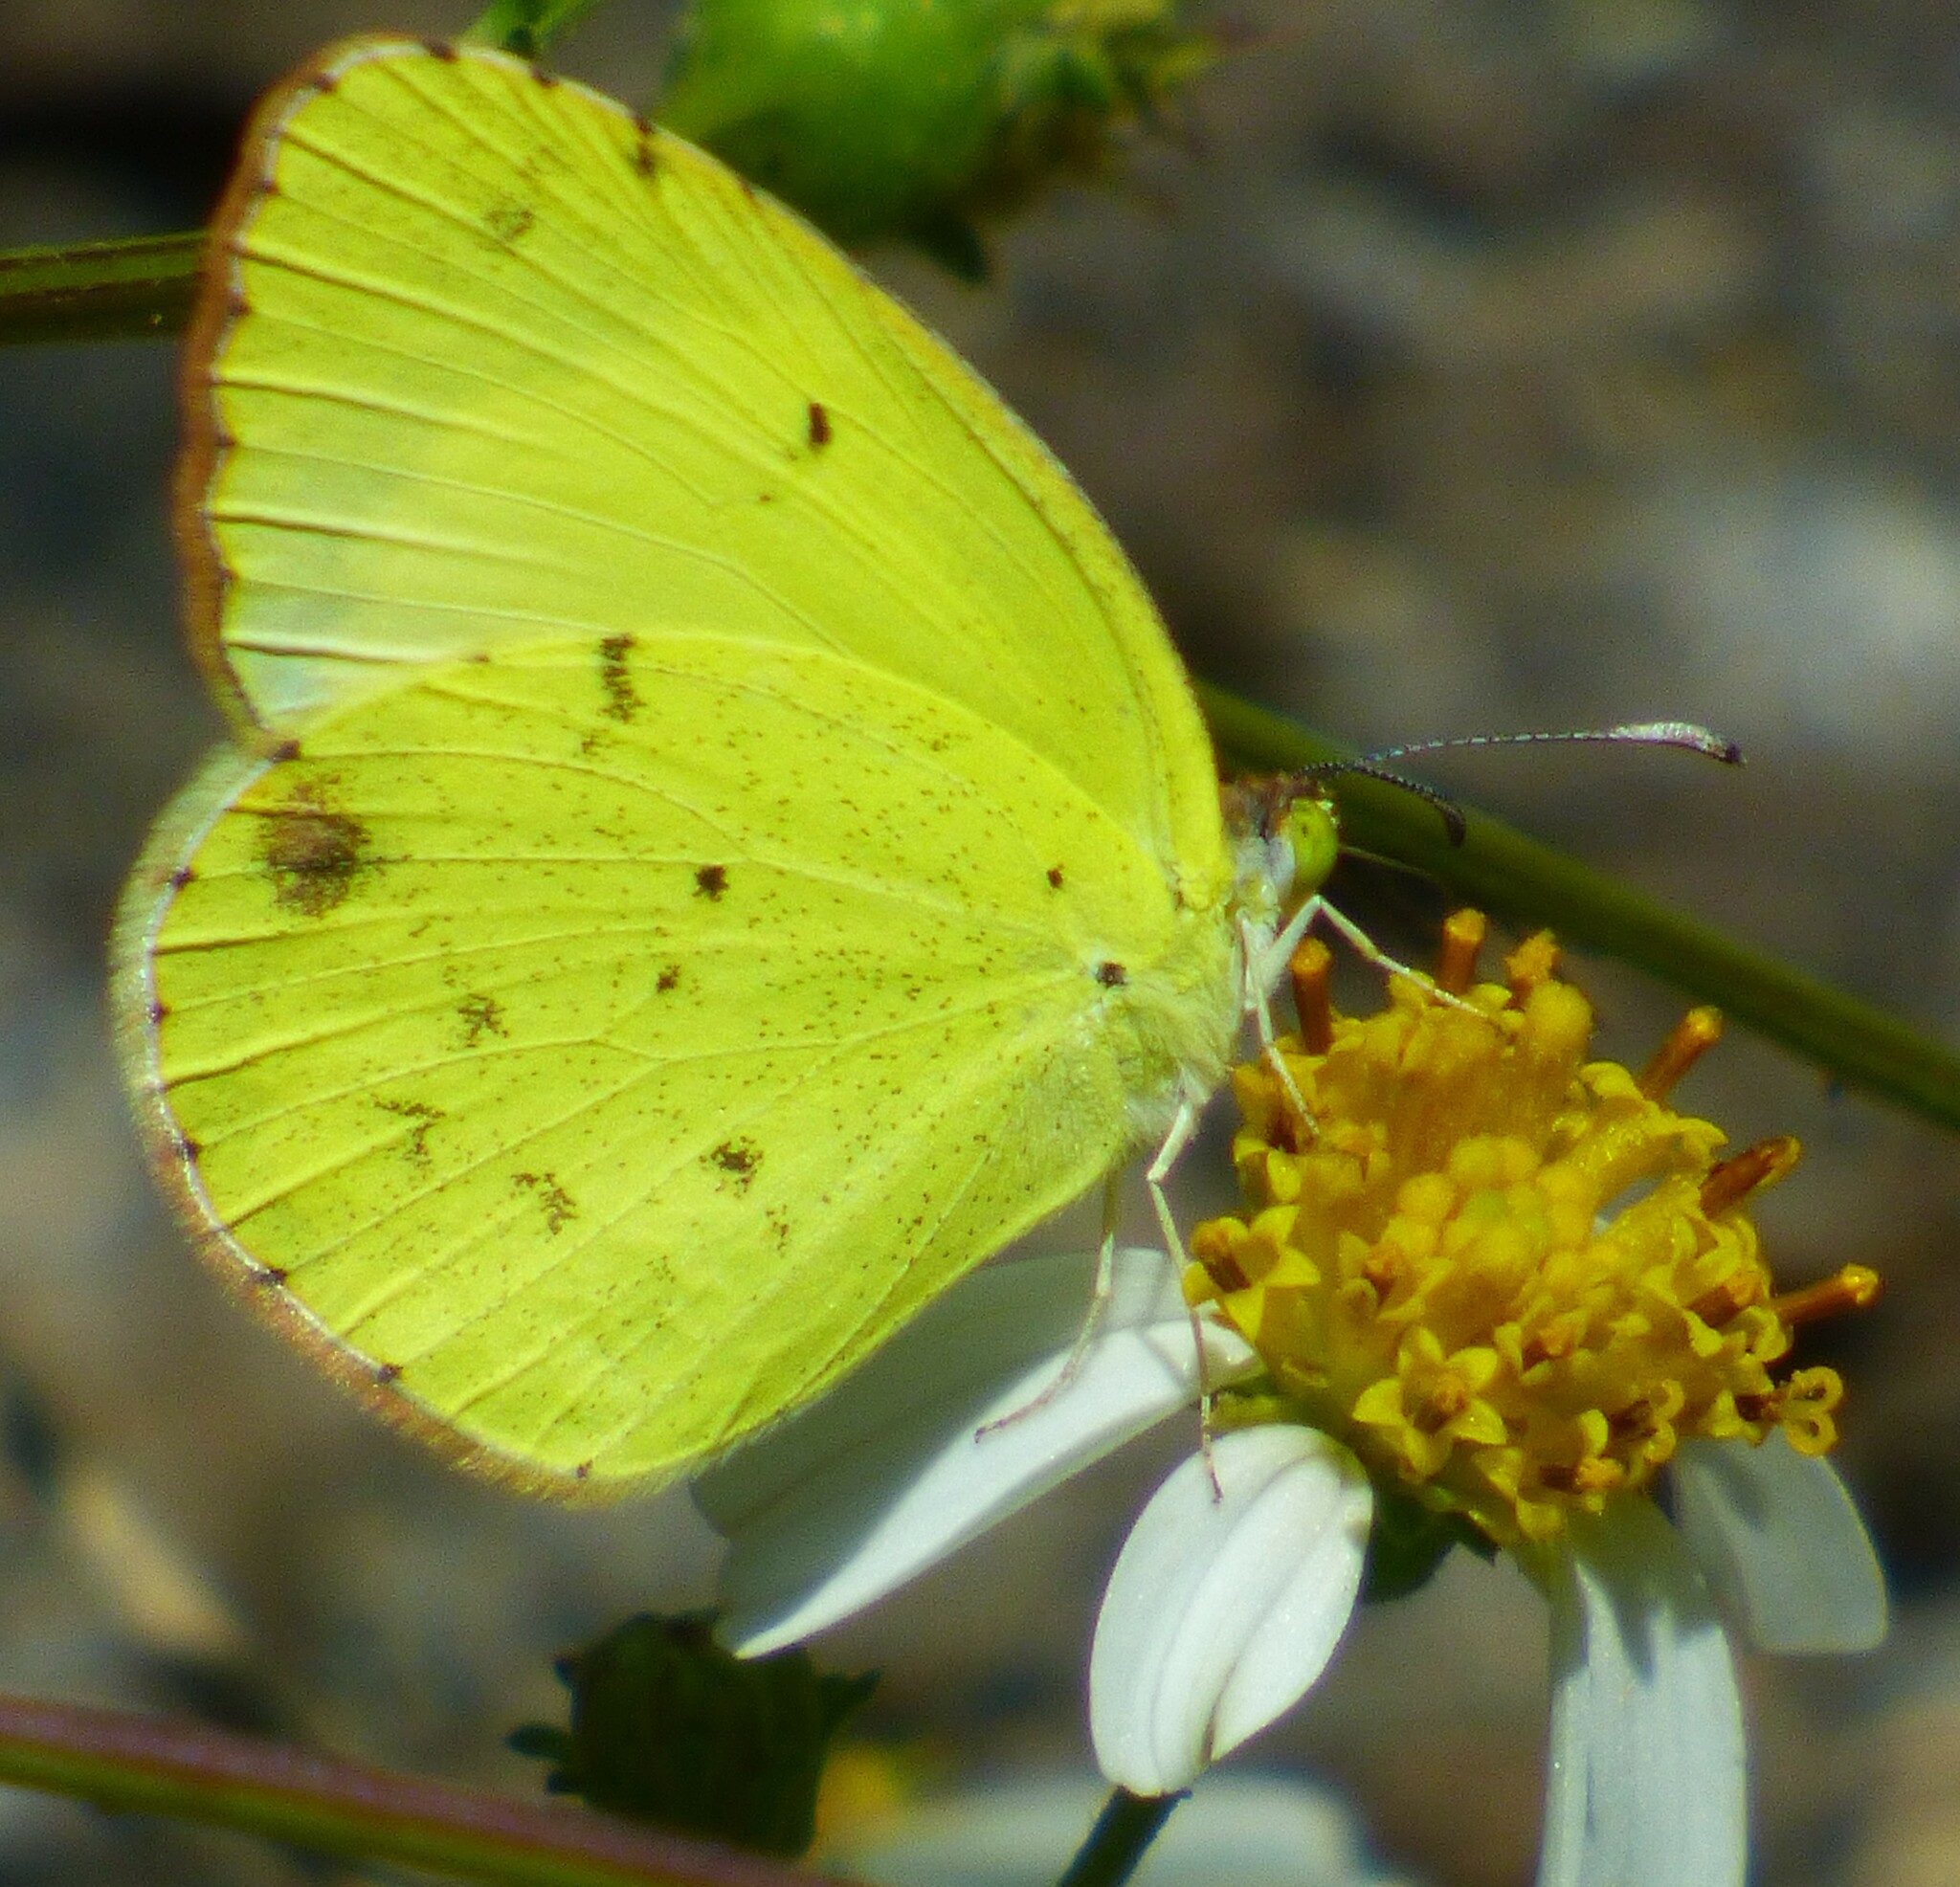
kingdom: Animalia
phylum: Arthropoda
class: Insecta
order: Lepidoptera
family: Pieridae
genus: Pyrisitia
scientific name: Pyrisitia lisa
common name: Little yellow
